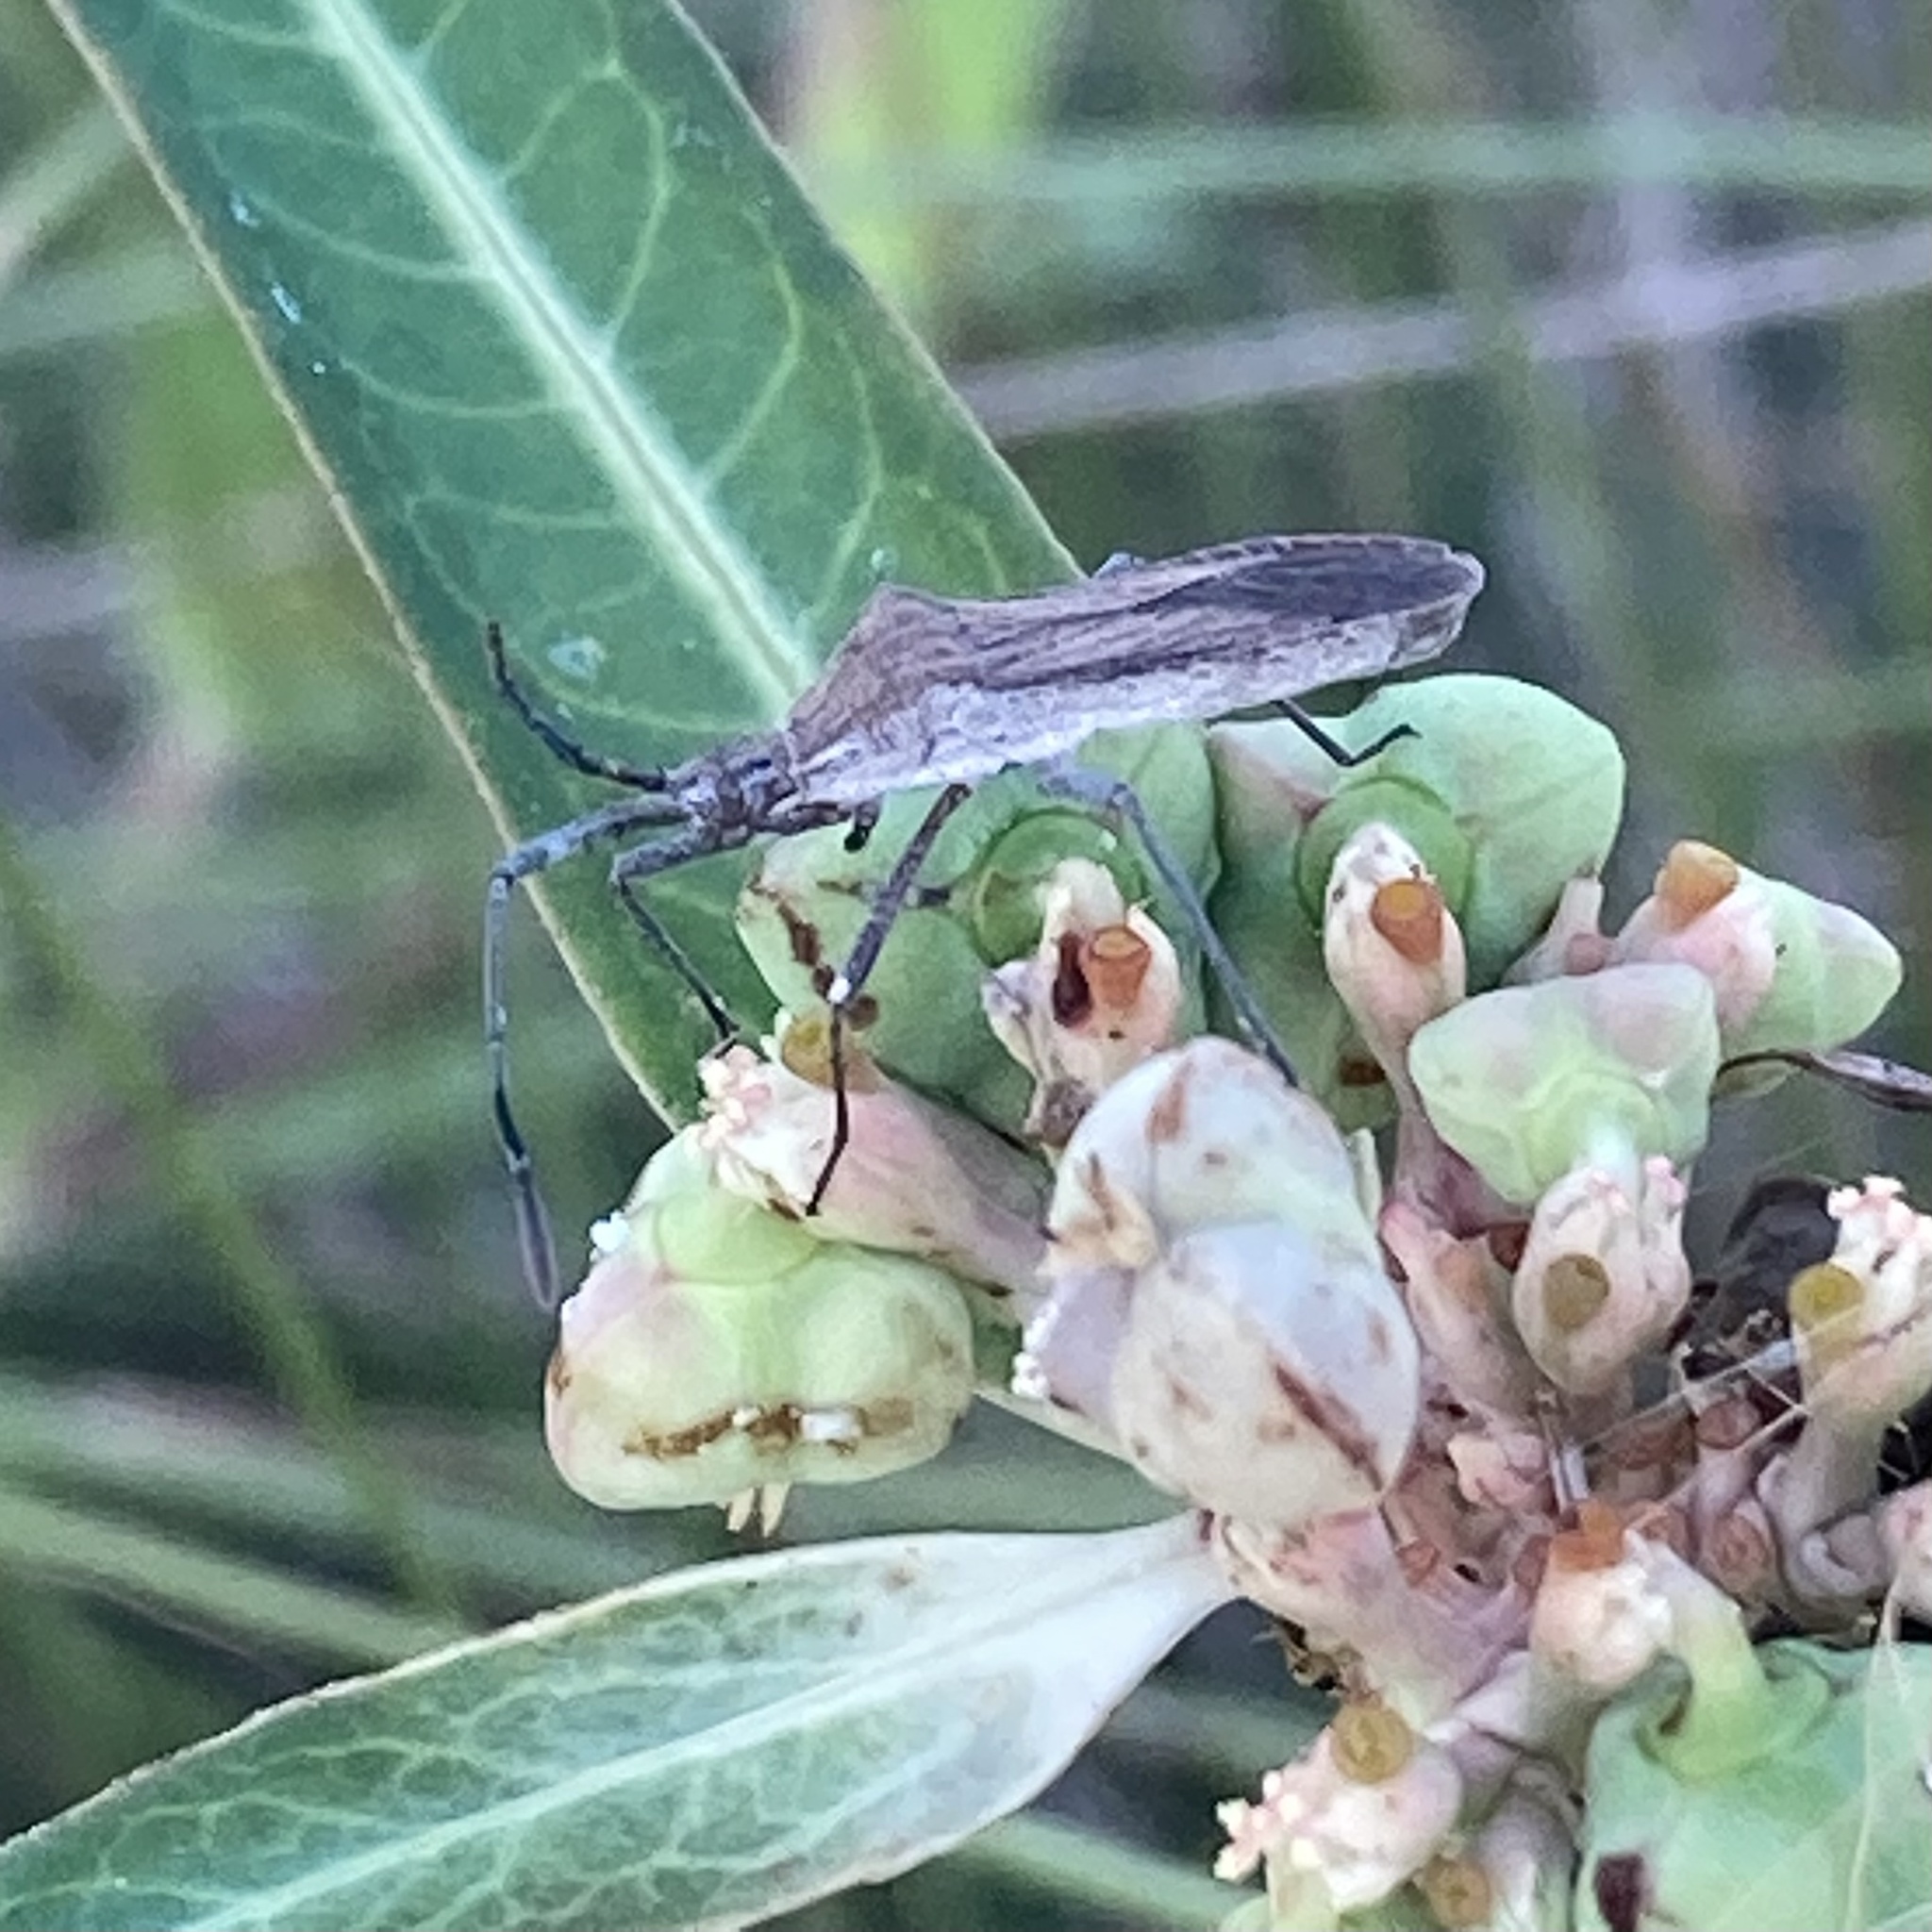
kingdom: Animalia
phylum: Arthropoda
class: Insecta
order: Hemiptera
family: Coreidae
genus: Chariesterus
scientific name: Chariesterus antennator
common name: Flat horned coreid
